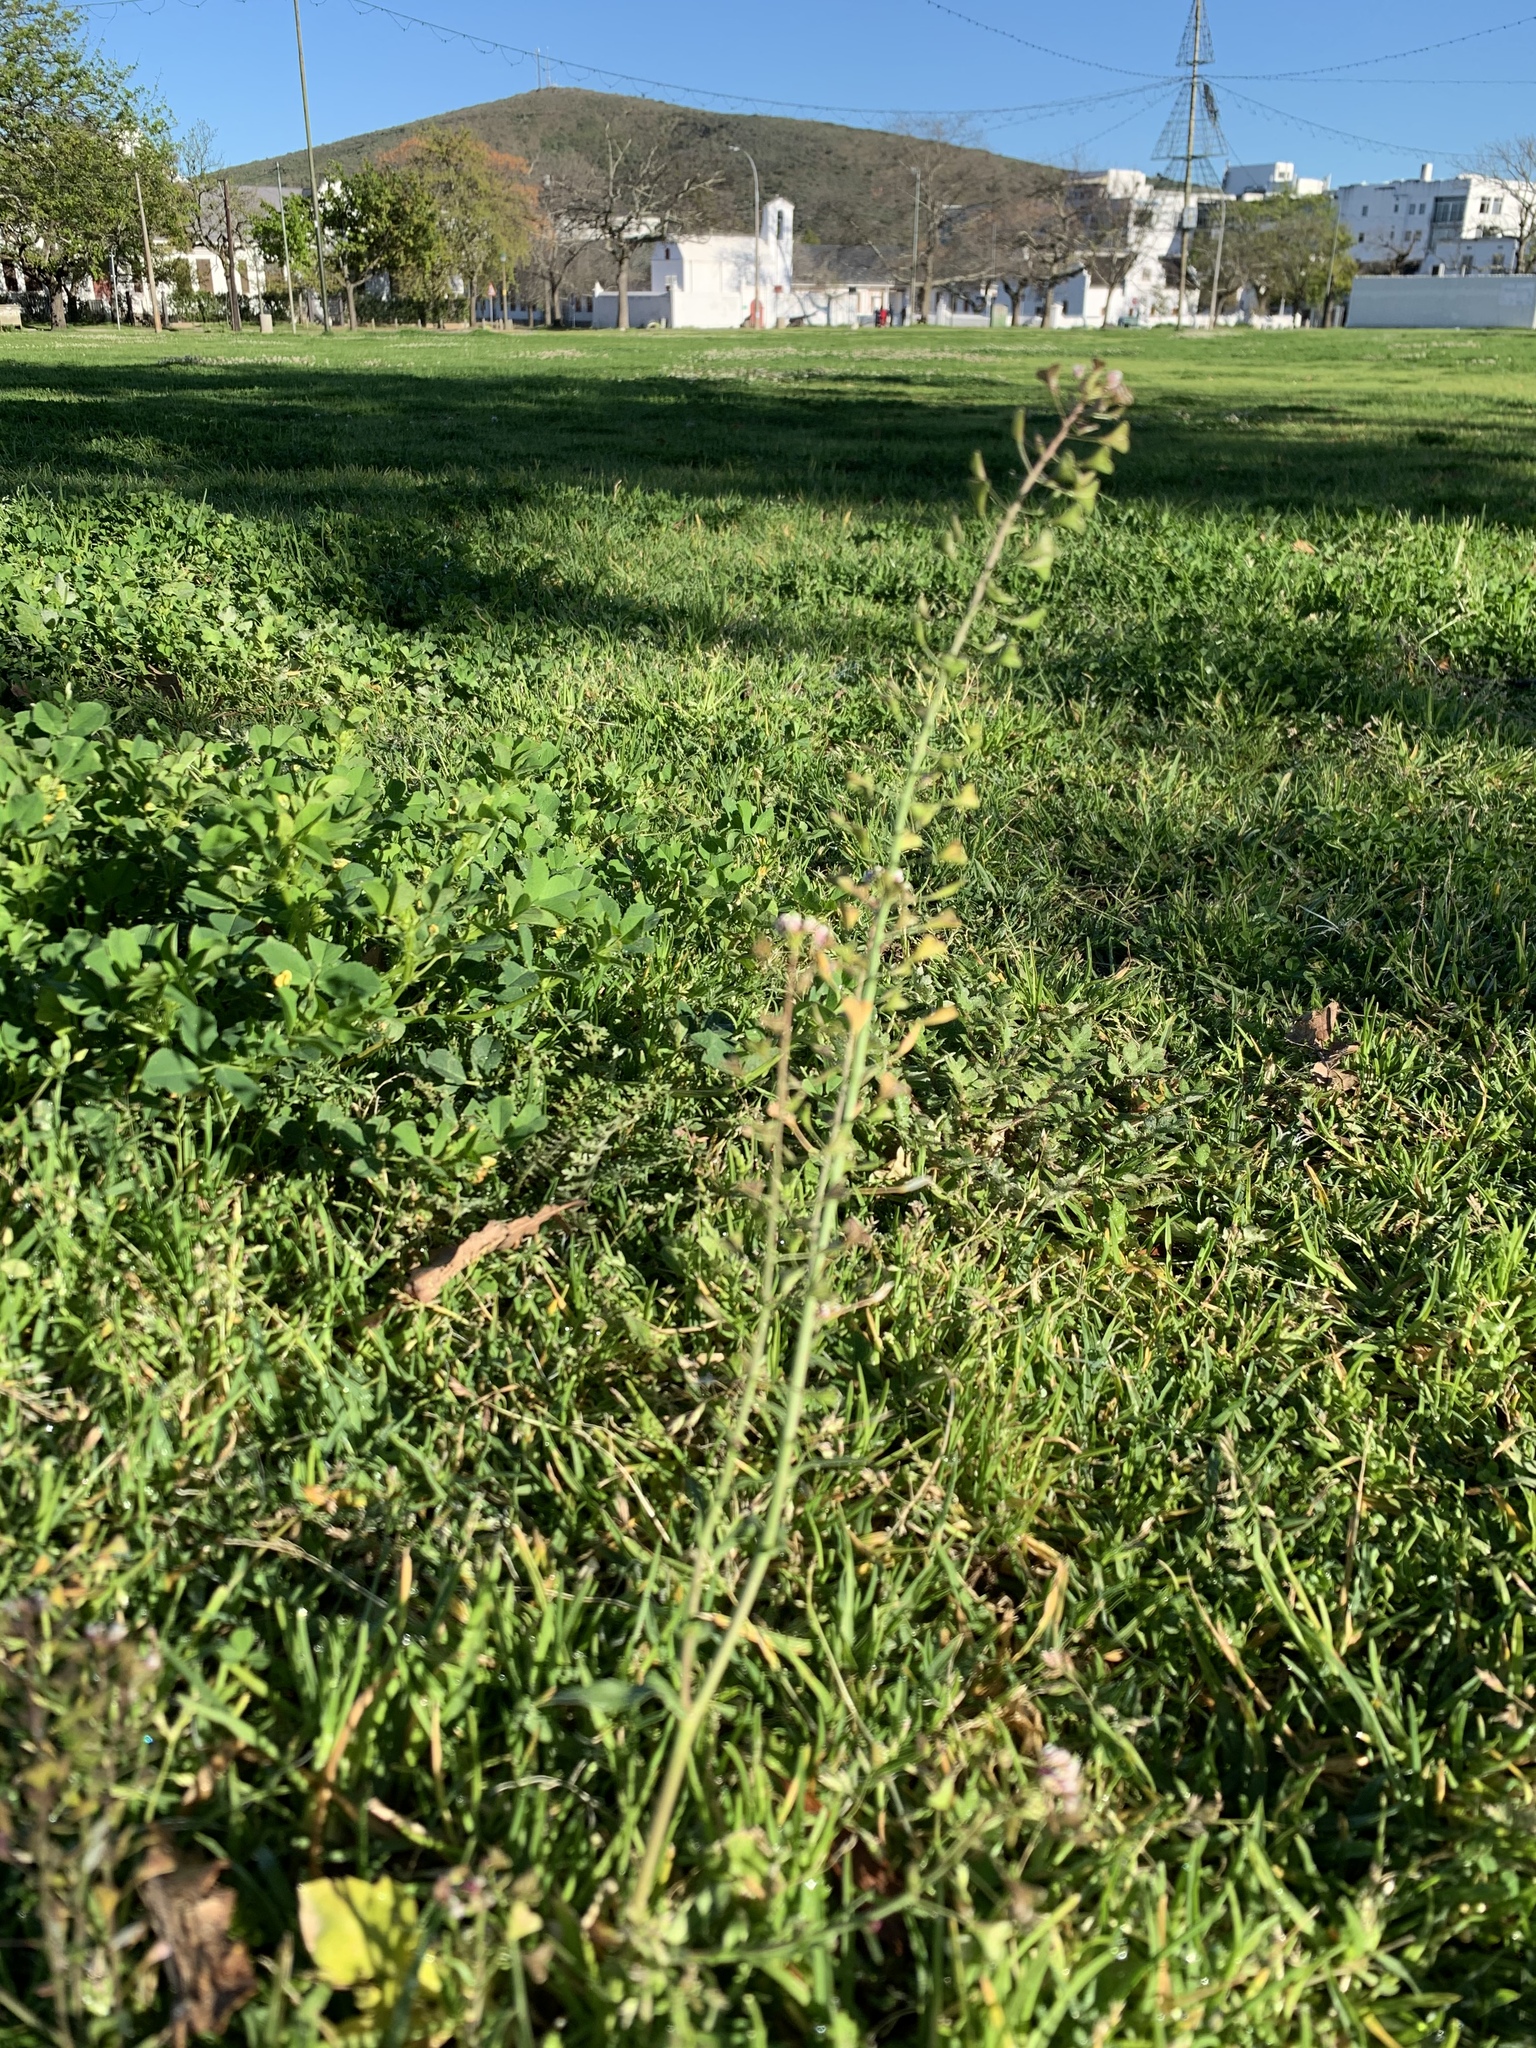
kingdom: Plantae
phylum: Tracheophyta
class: Magnoliopsida
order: Brassicales
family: Brassicaceae
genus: Capsella
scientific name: Capsella bursa-pastoris
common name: Shepherd's purse
